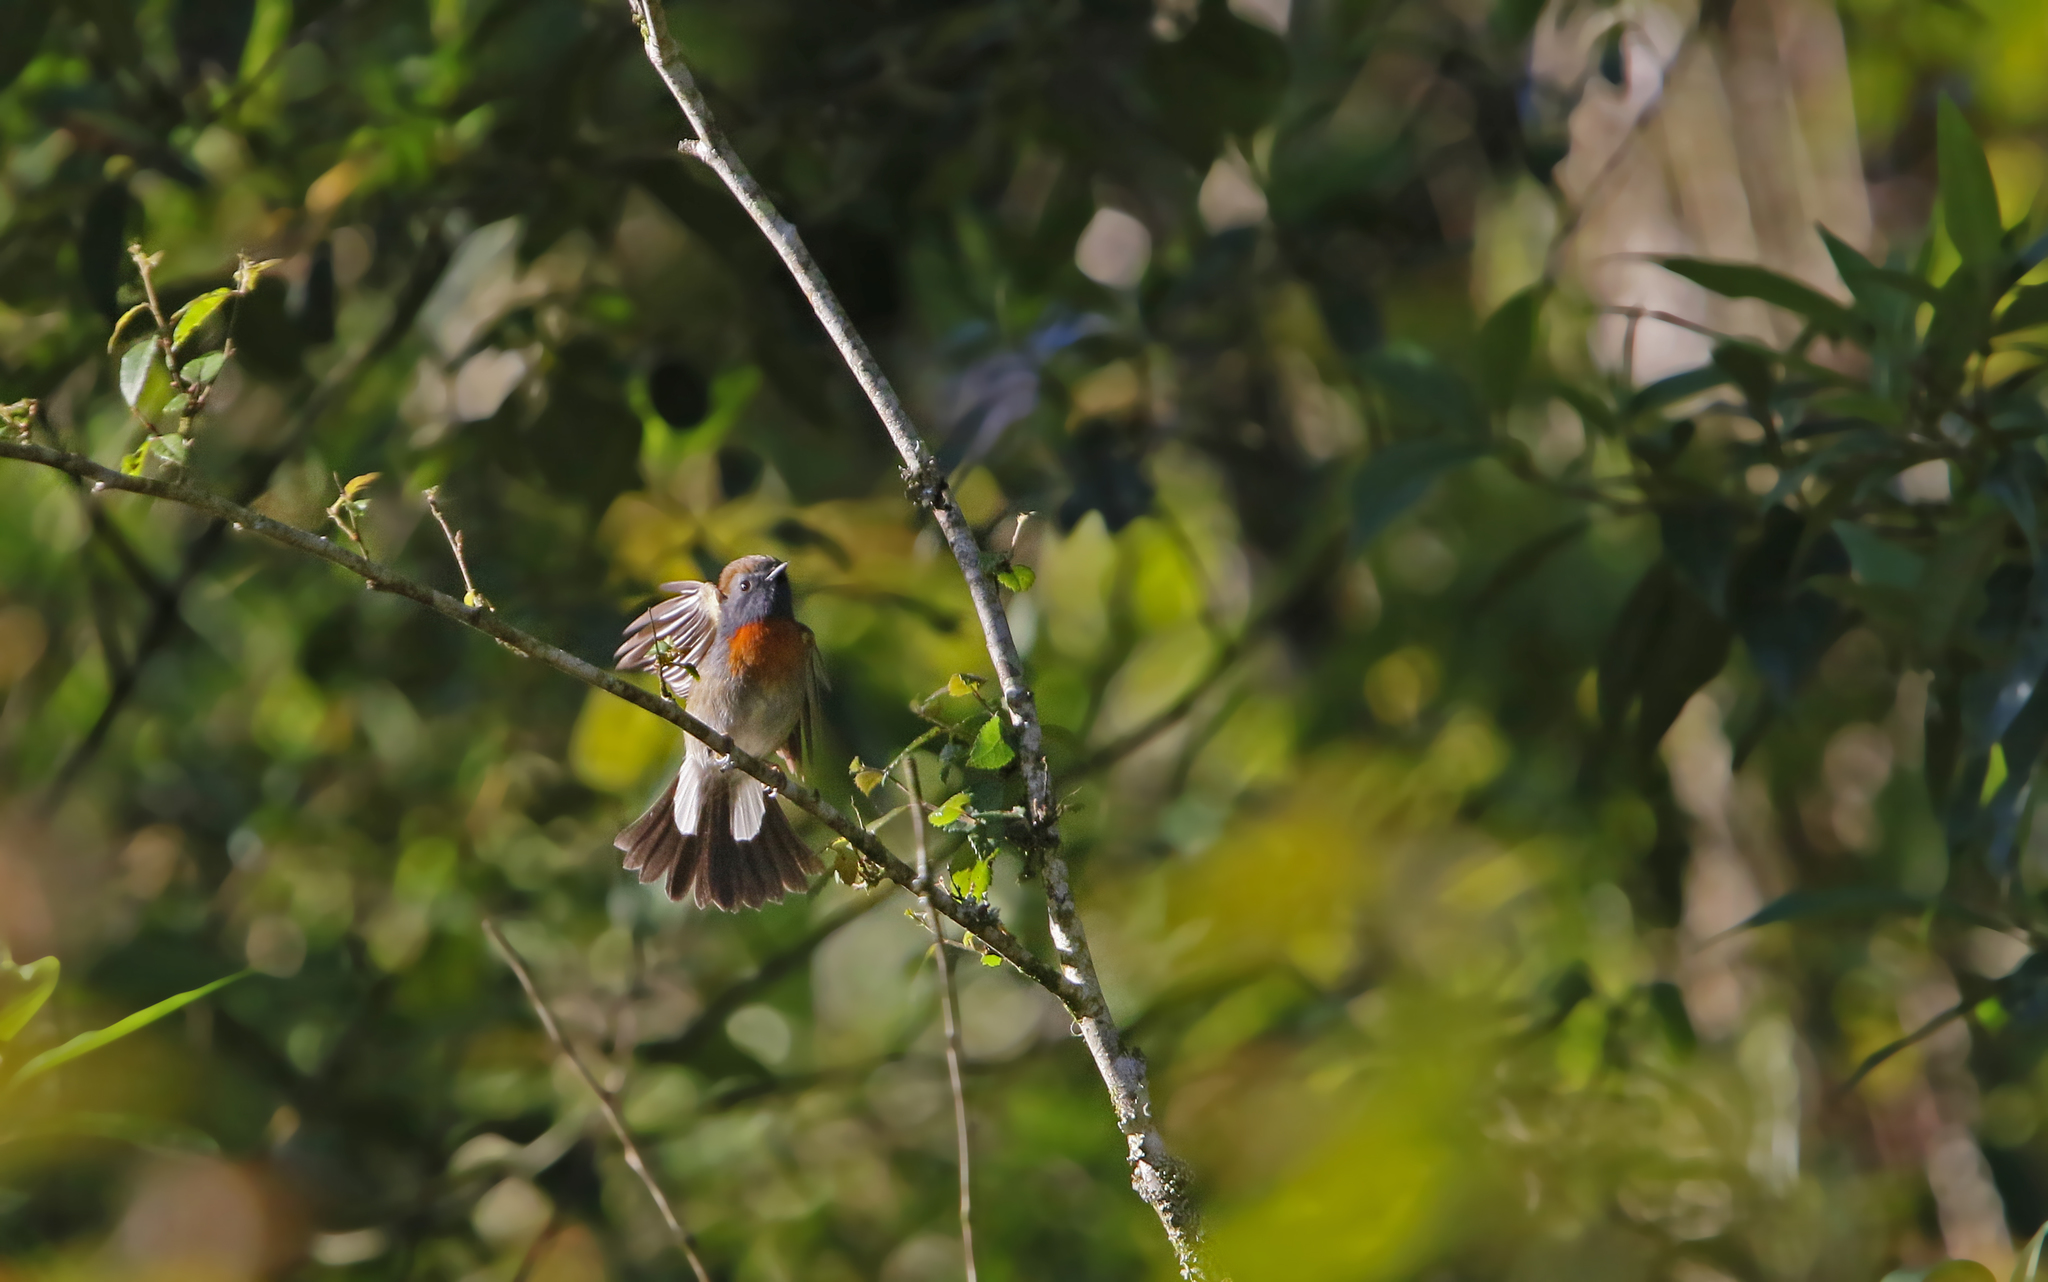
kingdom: Animalia
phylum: Chordata
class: Aves
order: Passeriformes
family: Muscicapidae
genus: Ficedula
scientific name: Ficedula strophiata
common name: Rufous-gorgeted flycatcher
